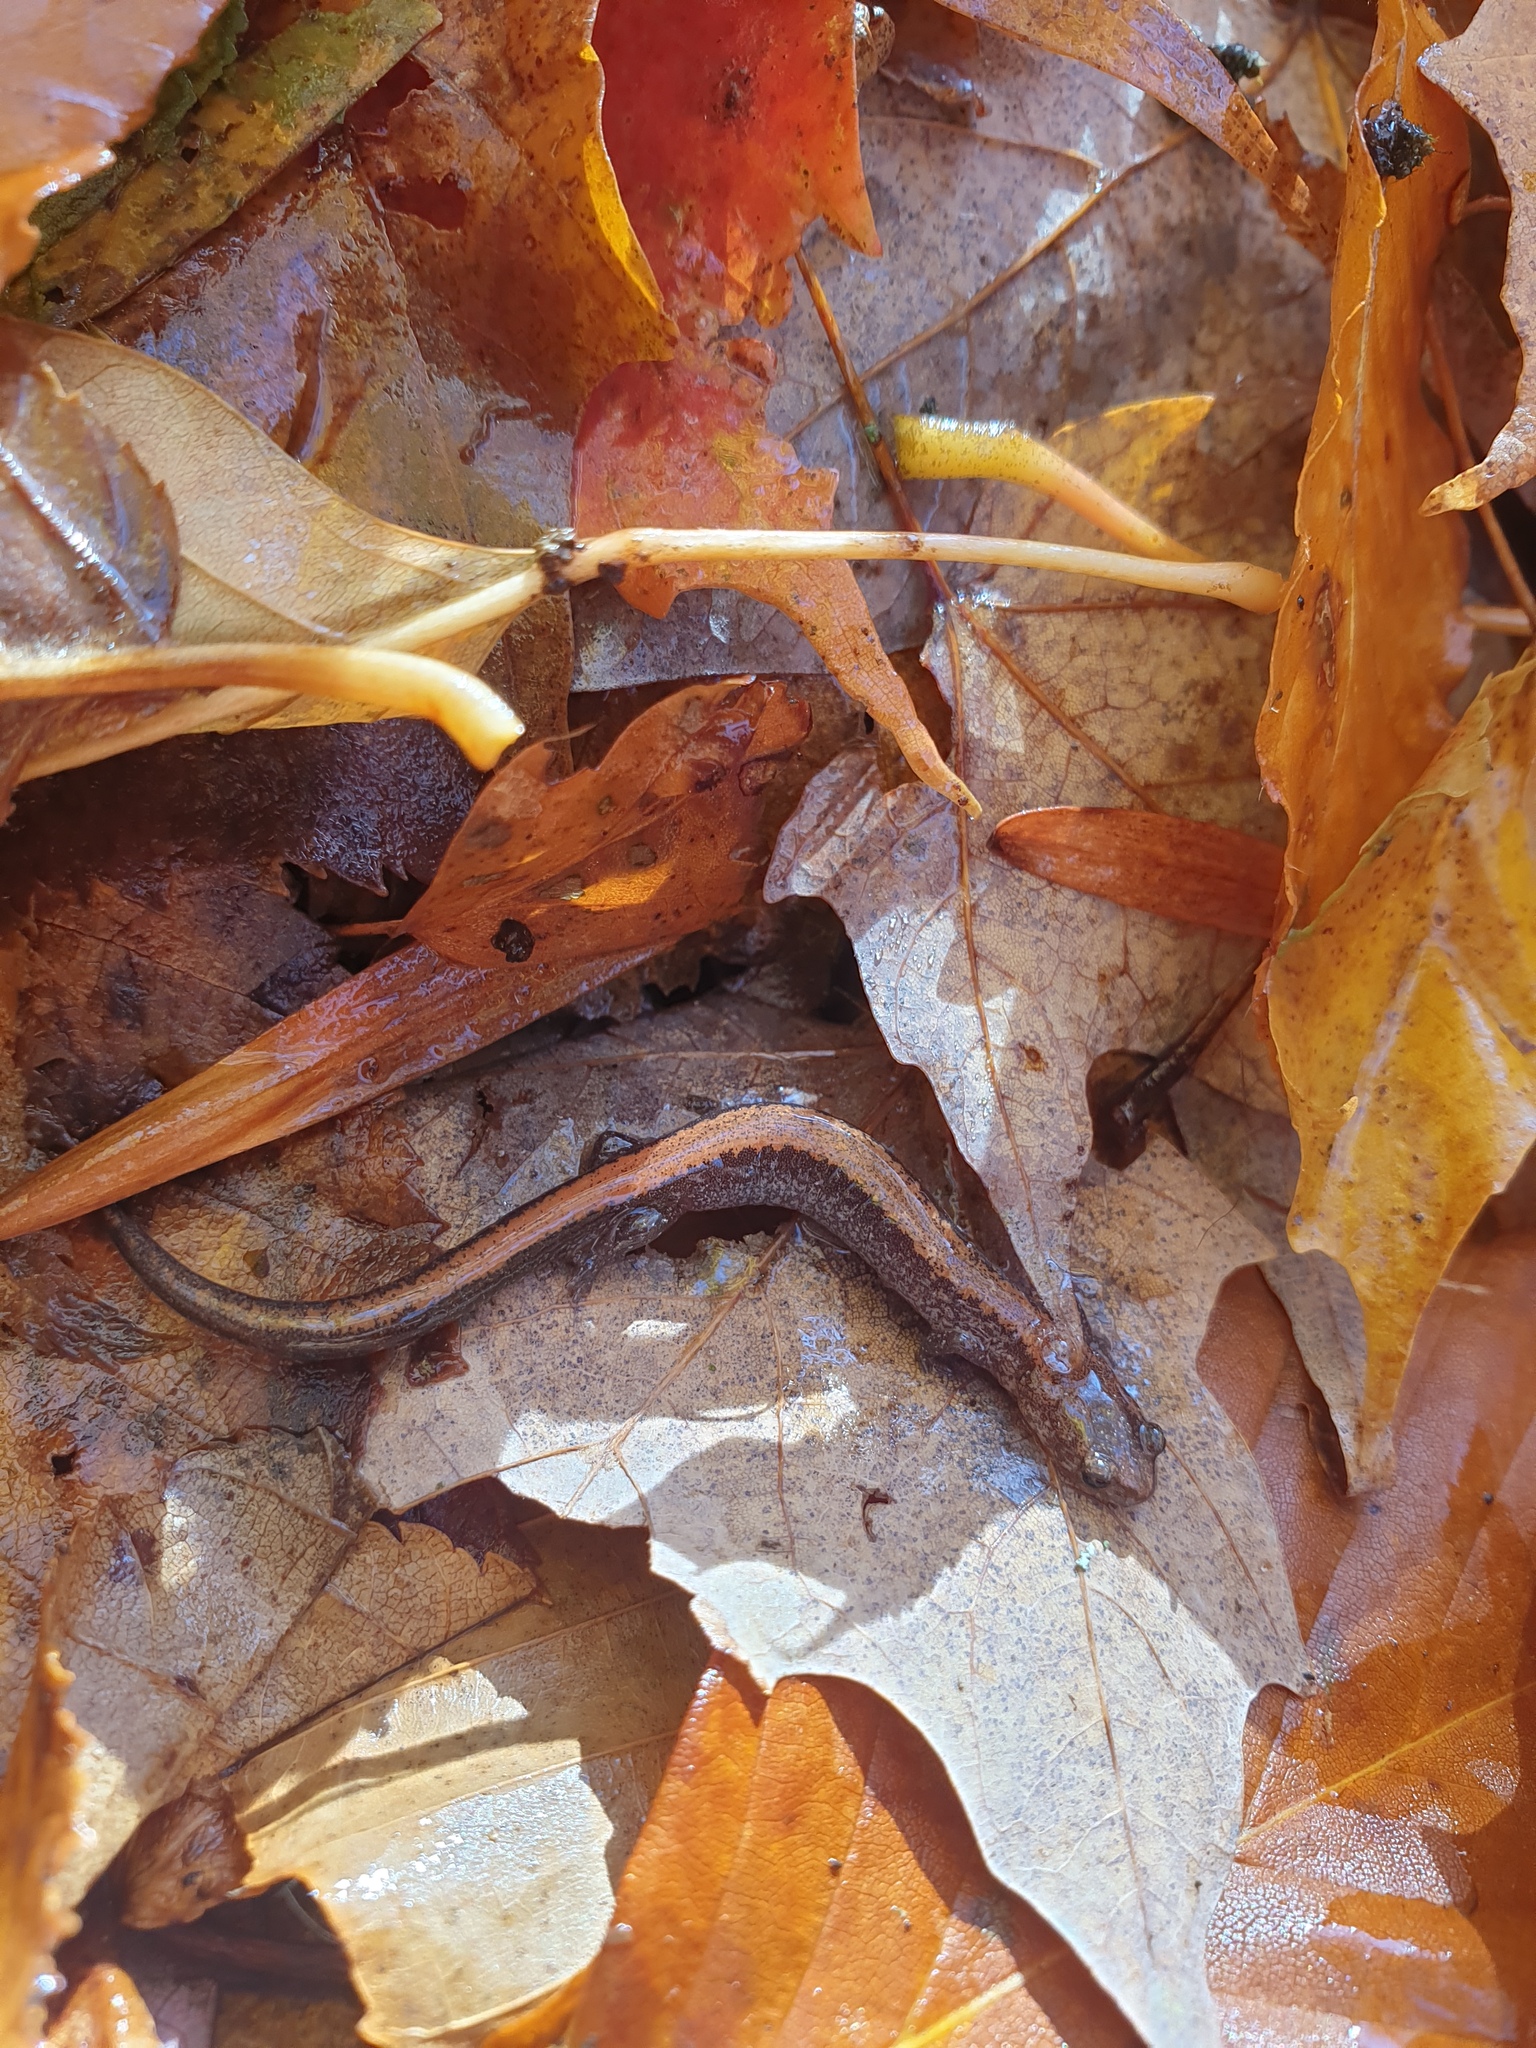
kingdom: Animalia
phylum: Chordata
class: Amphibia
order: Caudata
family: Plethodontidae
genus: Plethodon
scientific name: Plethodon cinereus
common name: Redback salamander
